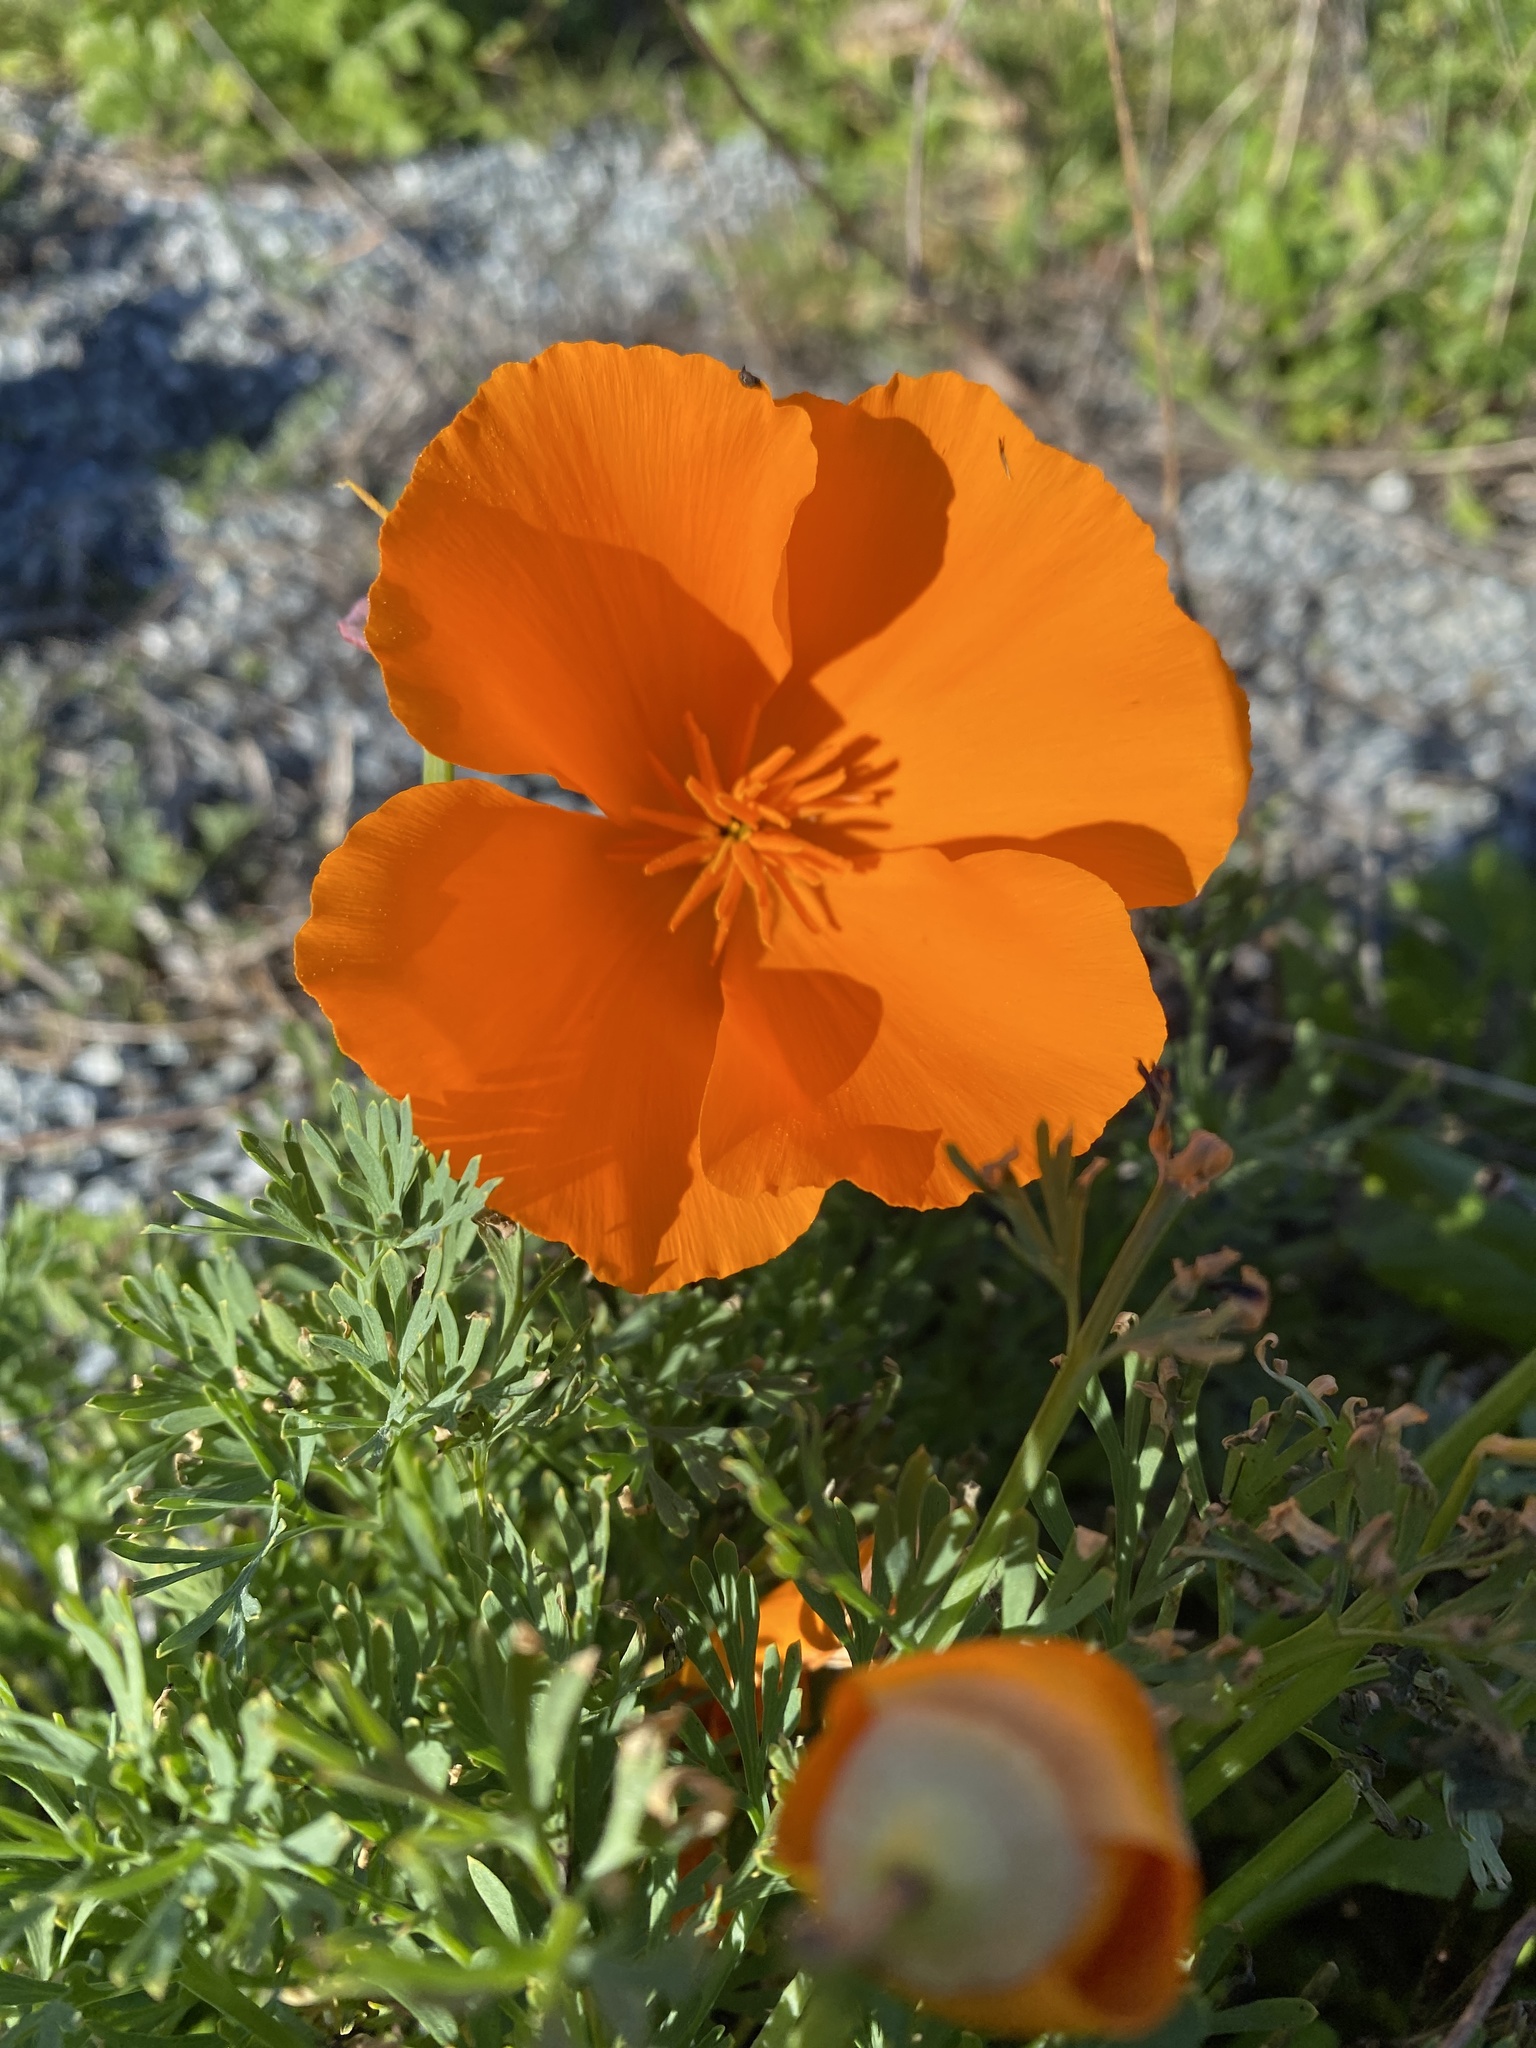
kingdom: Plantae
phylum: Tracheophyta
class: Magnoliopsida
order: Ranunculales
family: Papaveraceae
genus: Eschscholzia
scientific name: Eschscholzia californica
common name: California poppy
